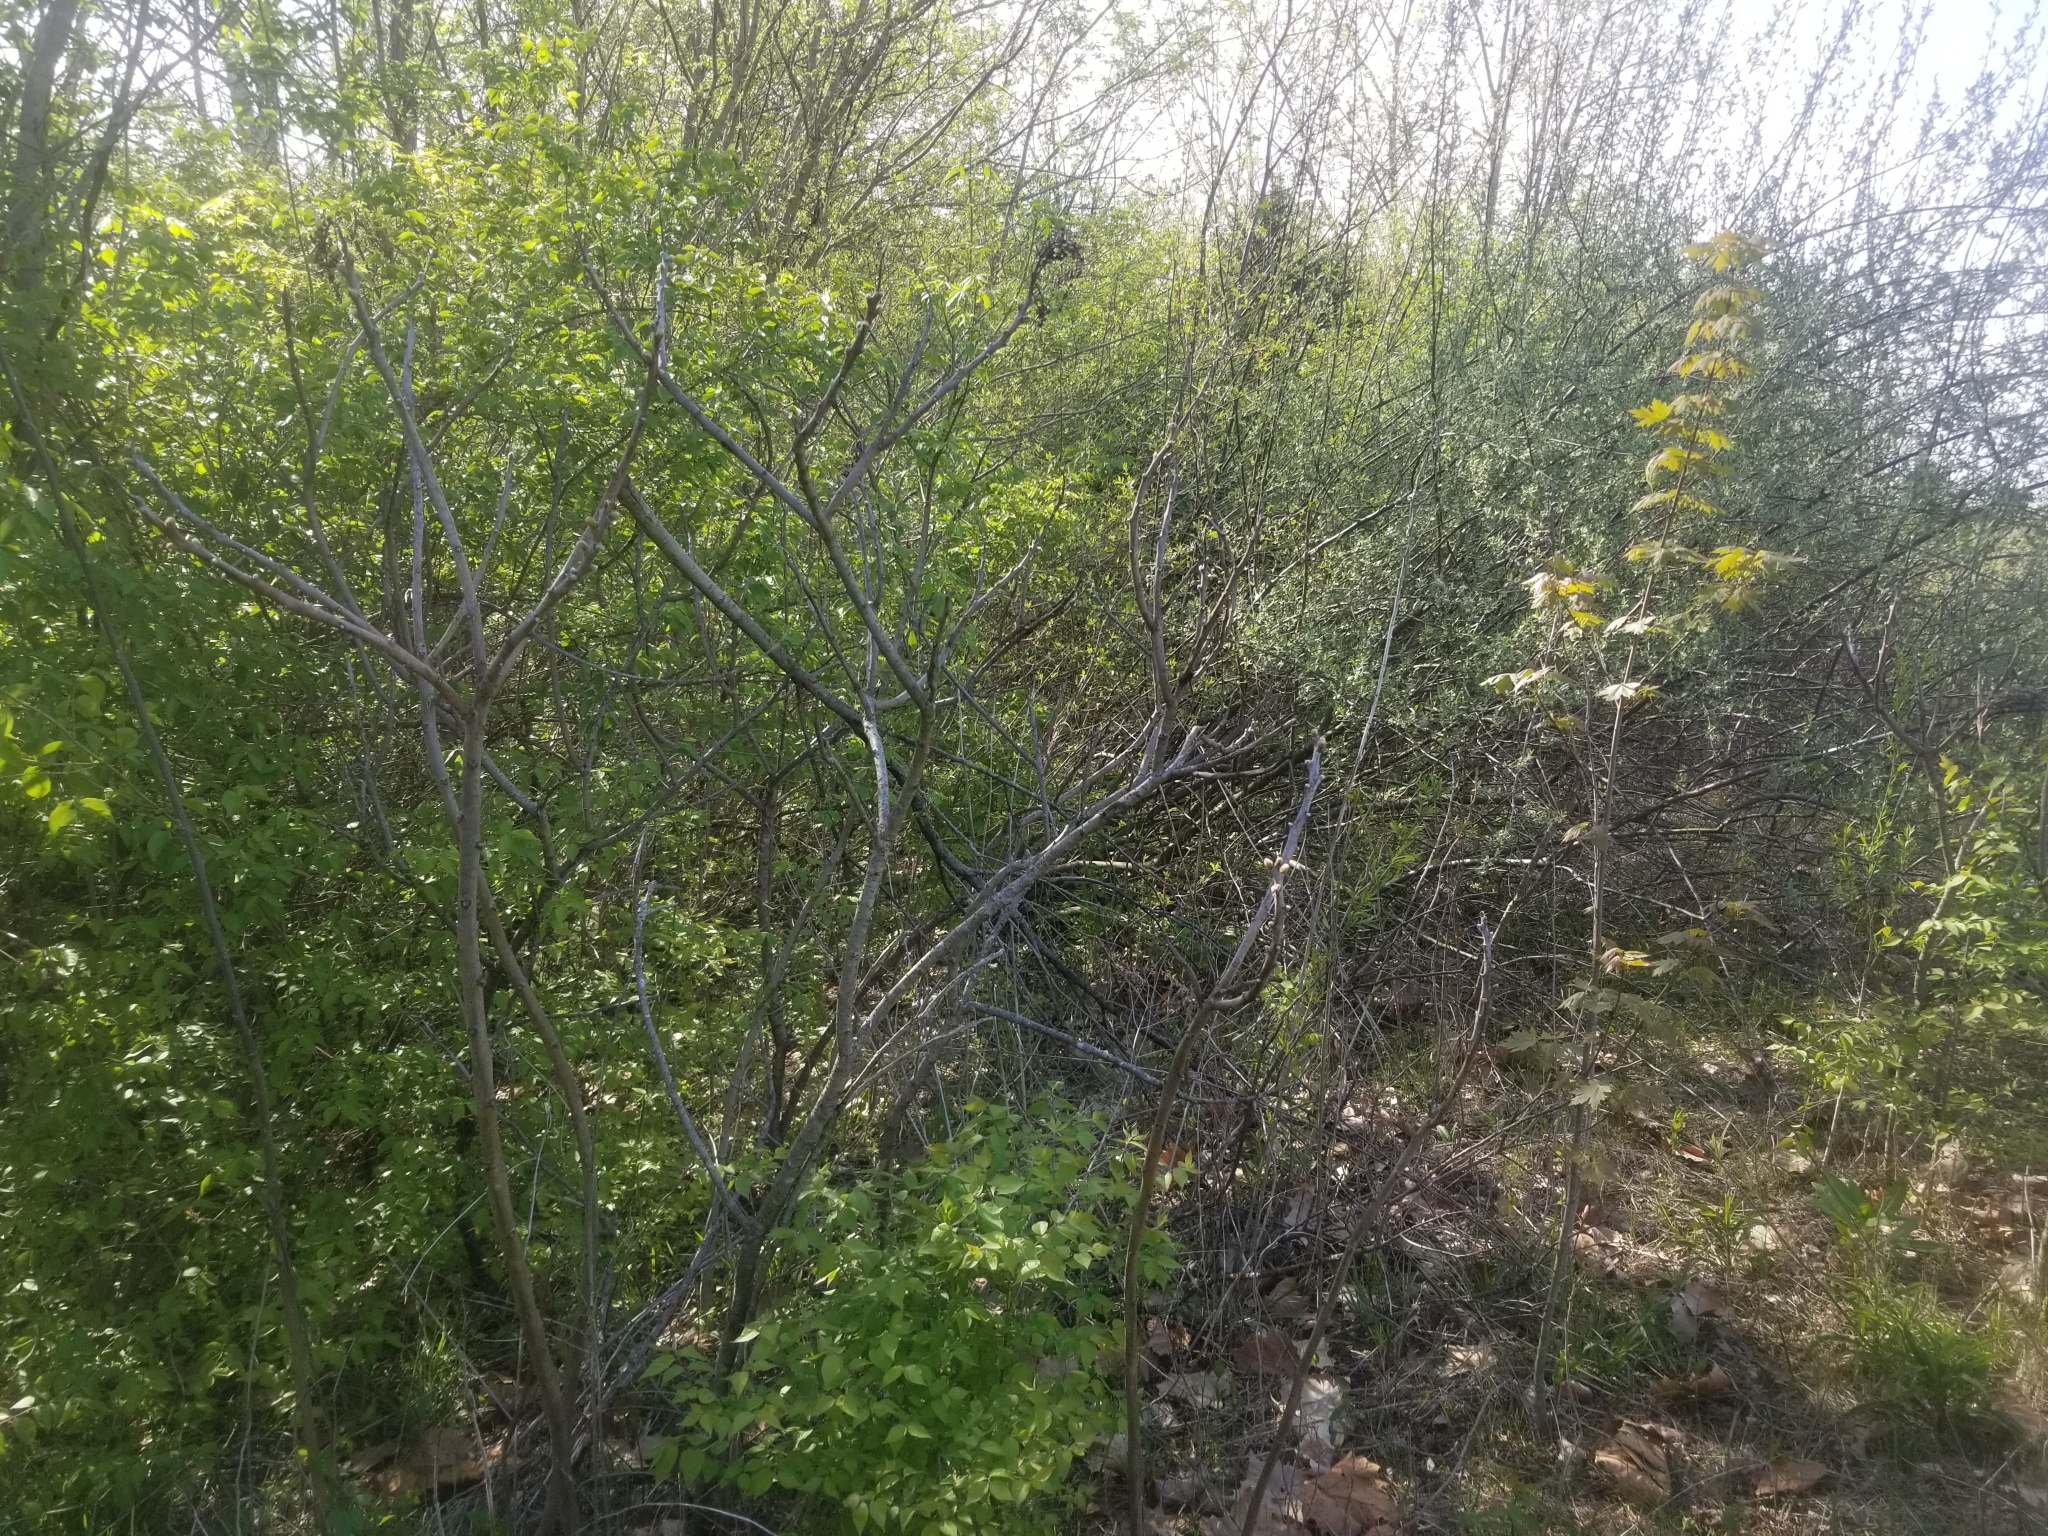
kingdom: Plantae
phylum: Tracheophyta
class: Magnoliopsida
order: Sapindales
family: Anacardiaceae
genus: Rhus
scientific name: Rhus glabra
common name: Scarlet sumac
